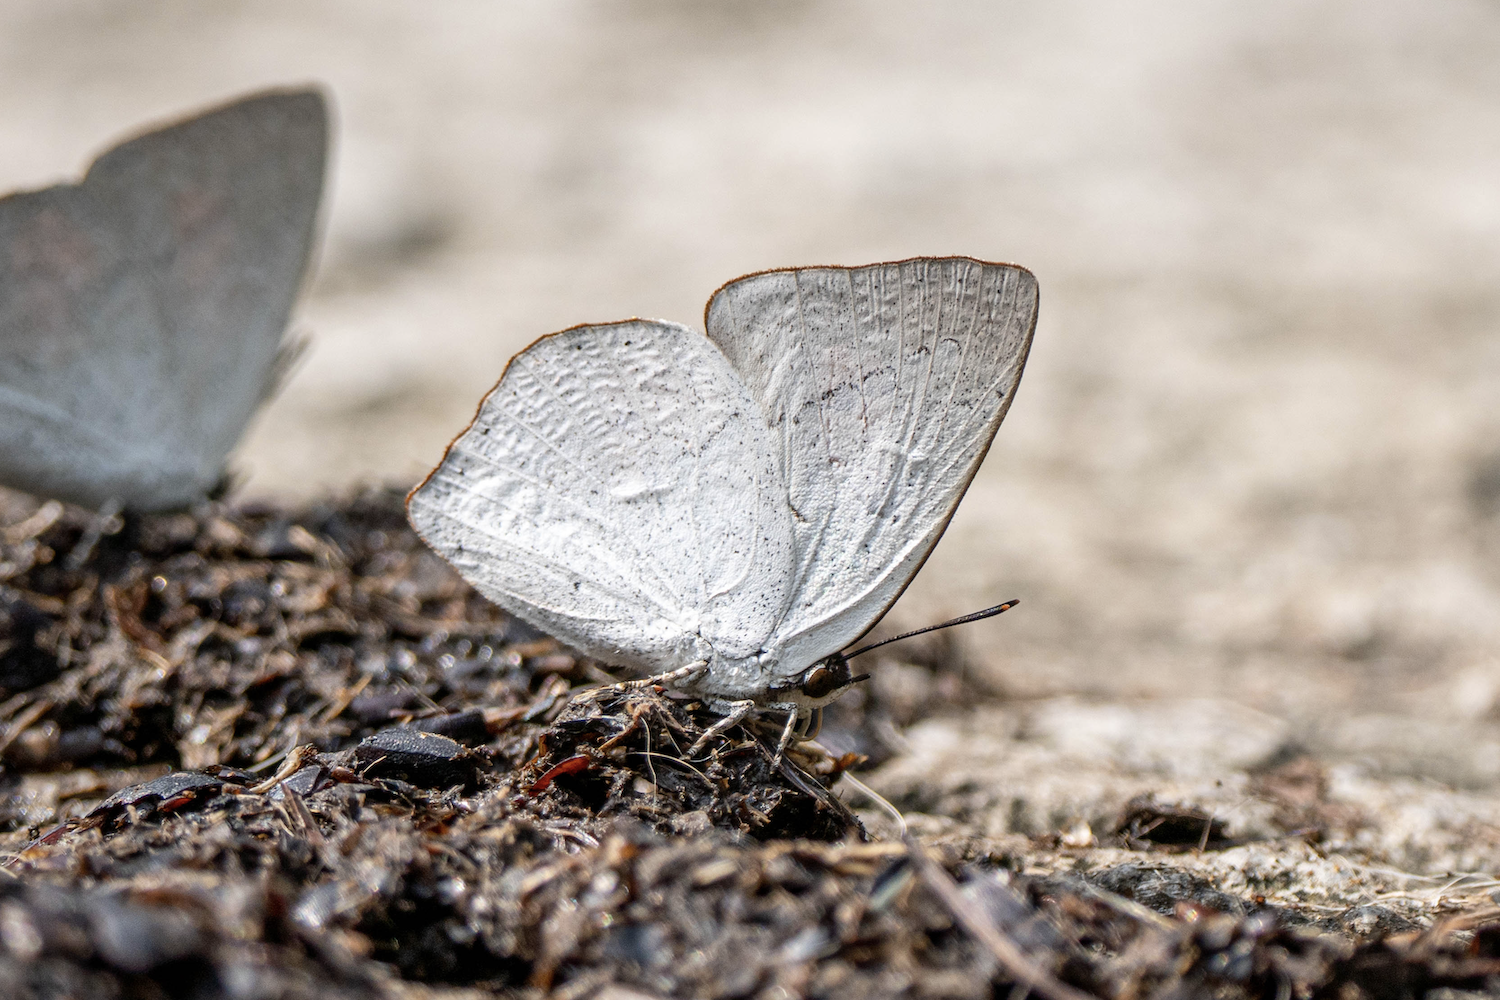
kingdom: Animalia
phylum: Arthropoda
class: Insecta
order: Lepidoptera
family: Lycaenidae
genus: Curetis
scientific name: Curetis acuta
